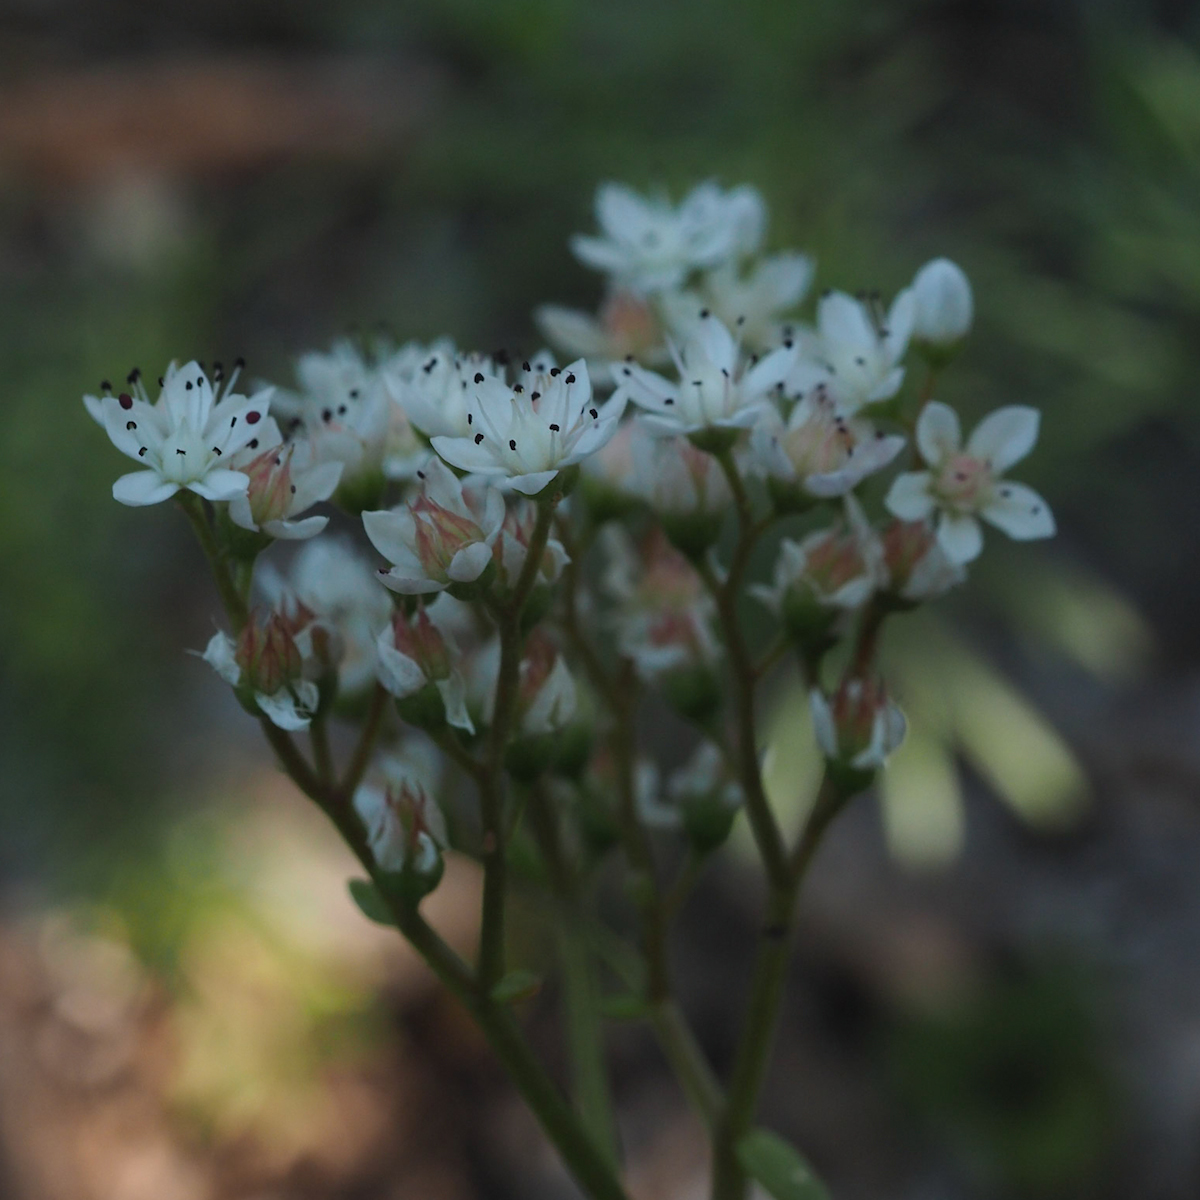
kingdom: Plantae
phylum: Tracheophyta
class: Magnoliopsida
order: Saxifragales
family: Crassulaceae
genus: Sedum
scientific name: Sedum album
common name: White stonecrop
